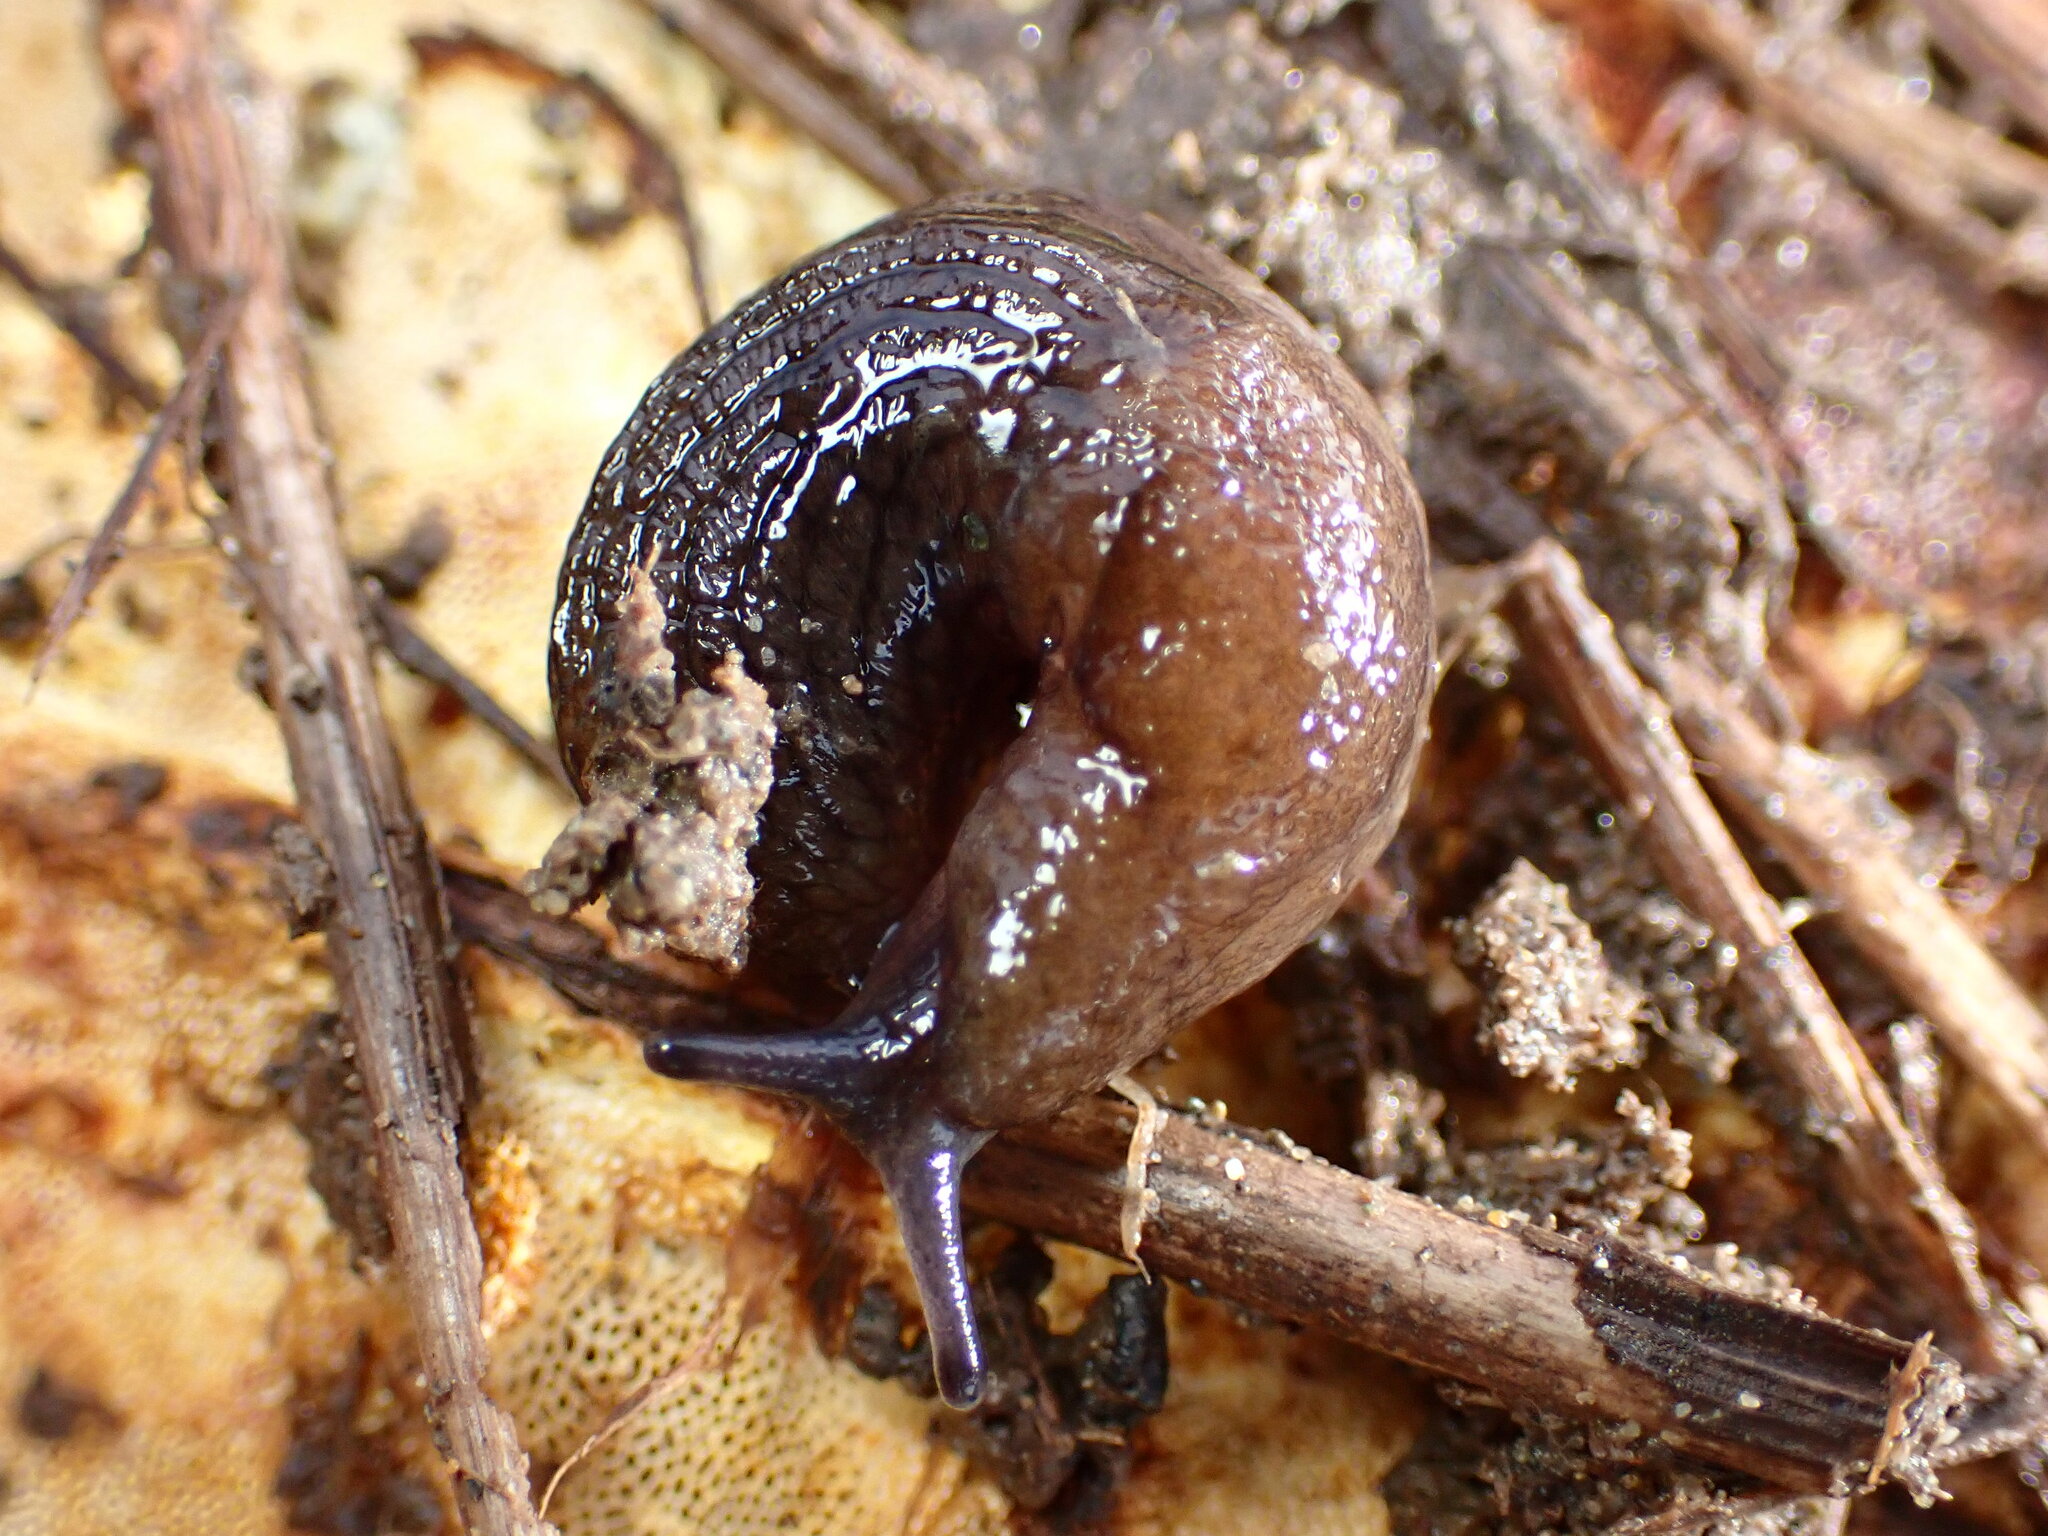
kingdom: Animalia
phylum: Mollusca
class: Gastropoda
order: Stylommatophora
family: Milacidae
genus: Milax
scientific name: Milax gagates
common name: Greenhouse slug
